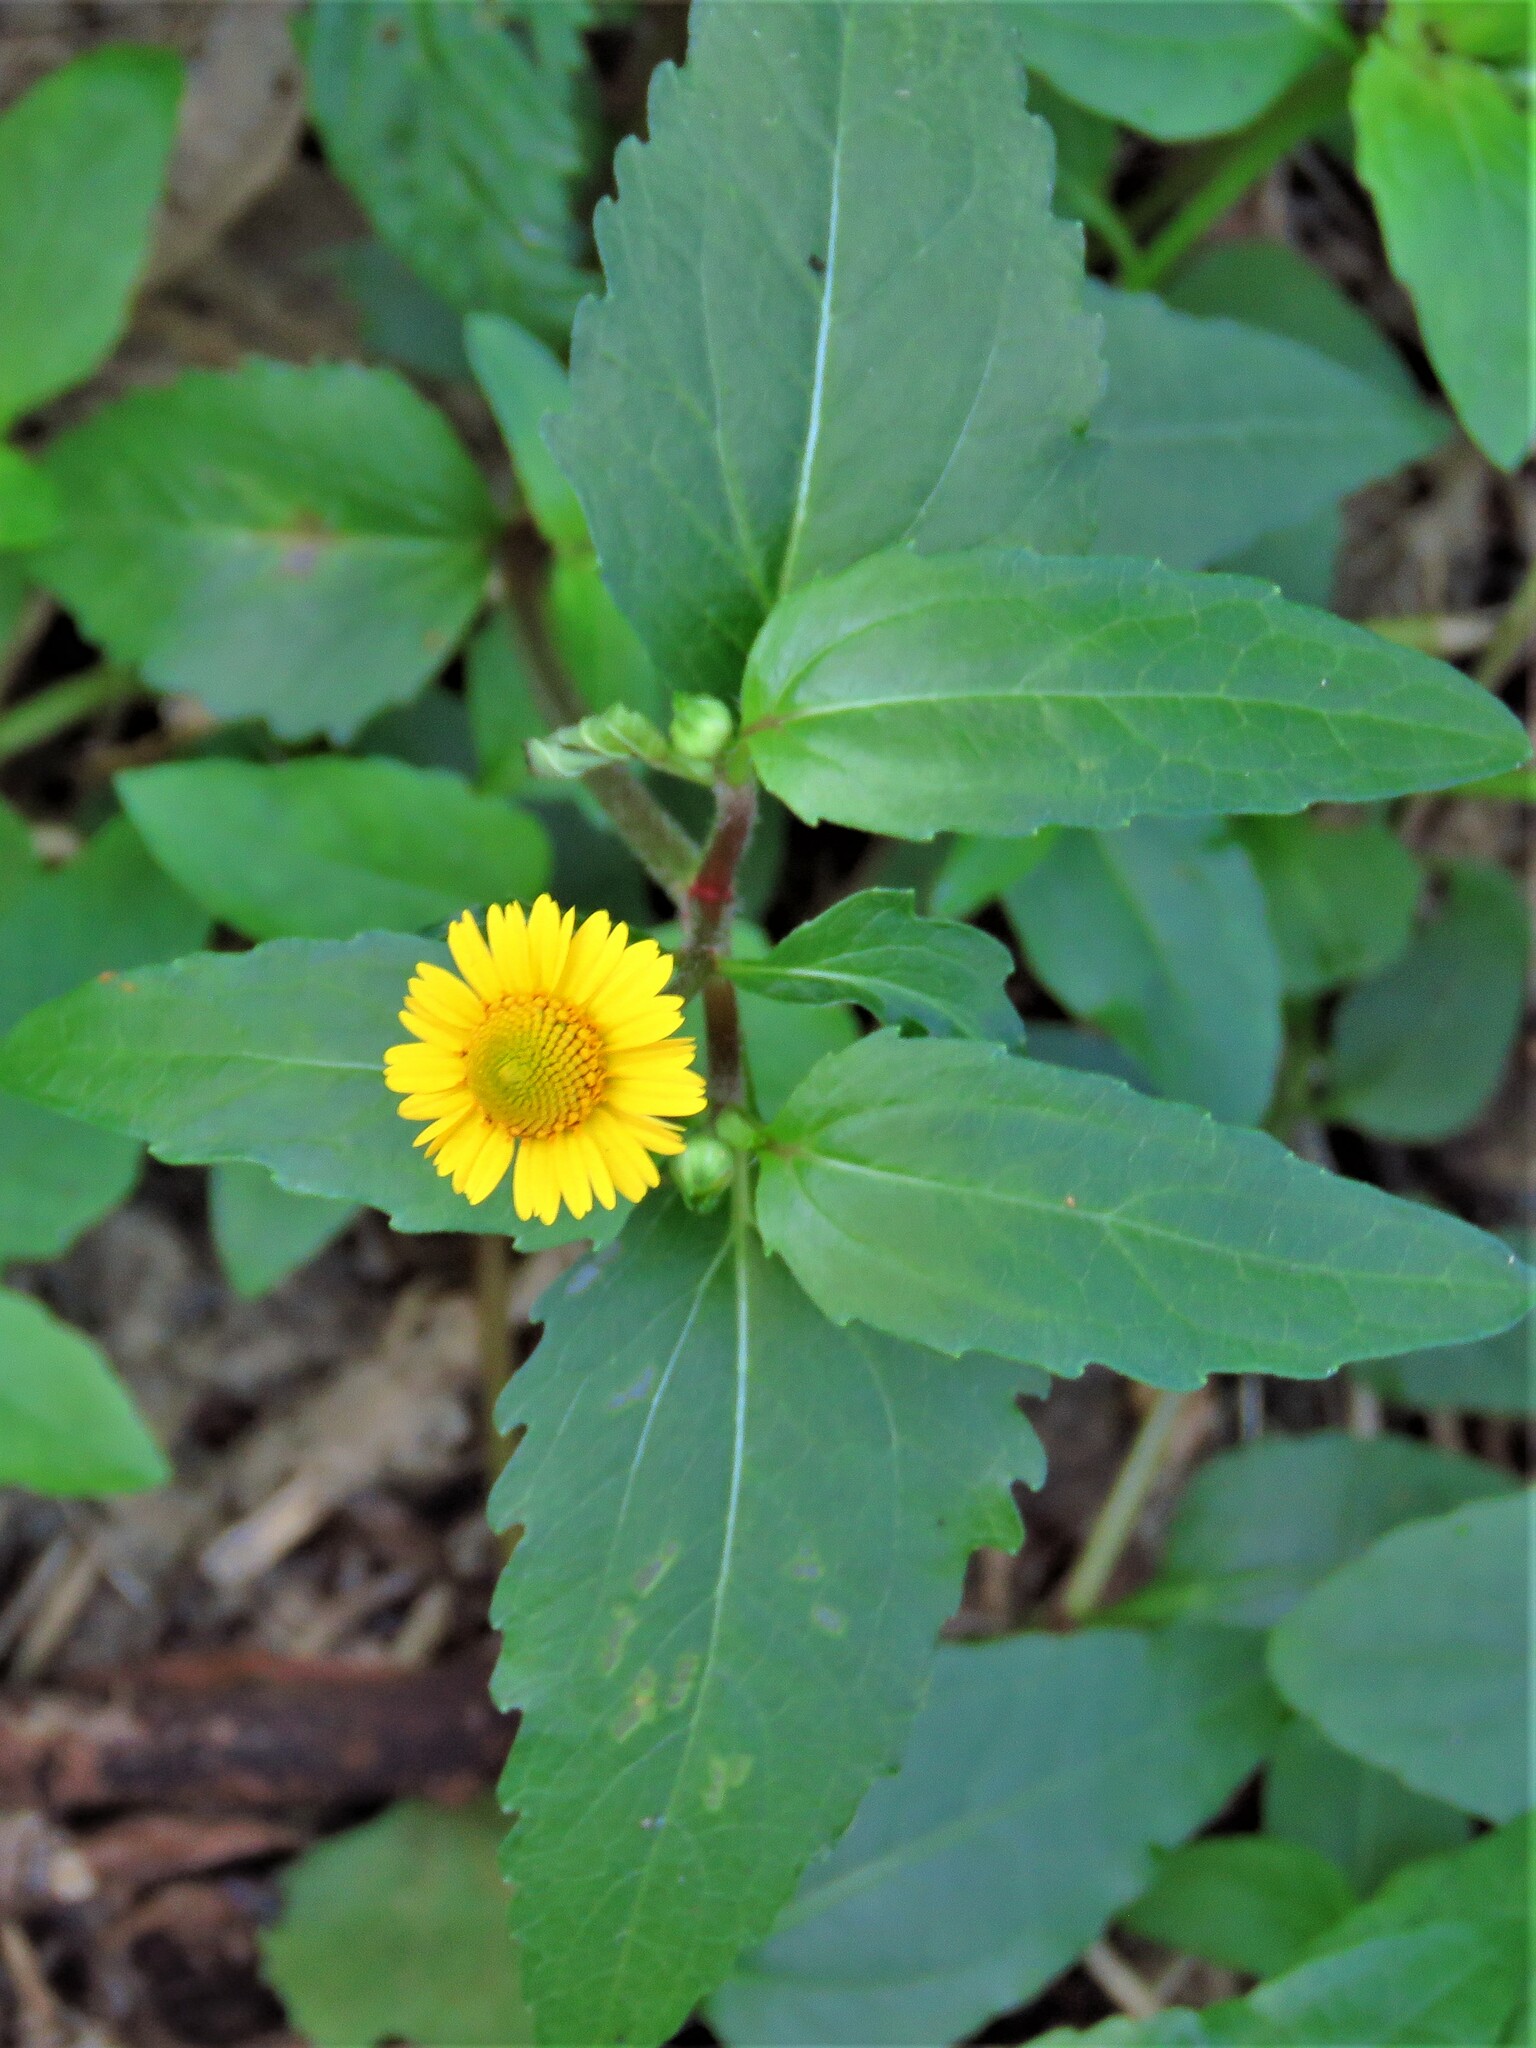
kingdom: Plantae
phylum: Tracheophyta
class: Magnoliopsida
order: Asterales
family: Asteraceae
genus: Acmella
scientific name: Acmella repens
